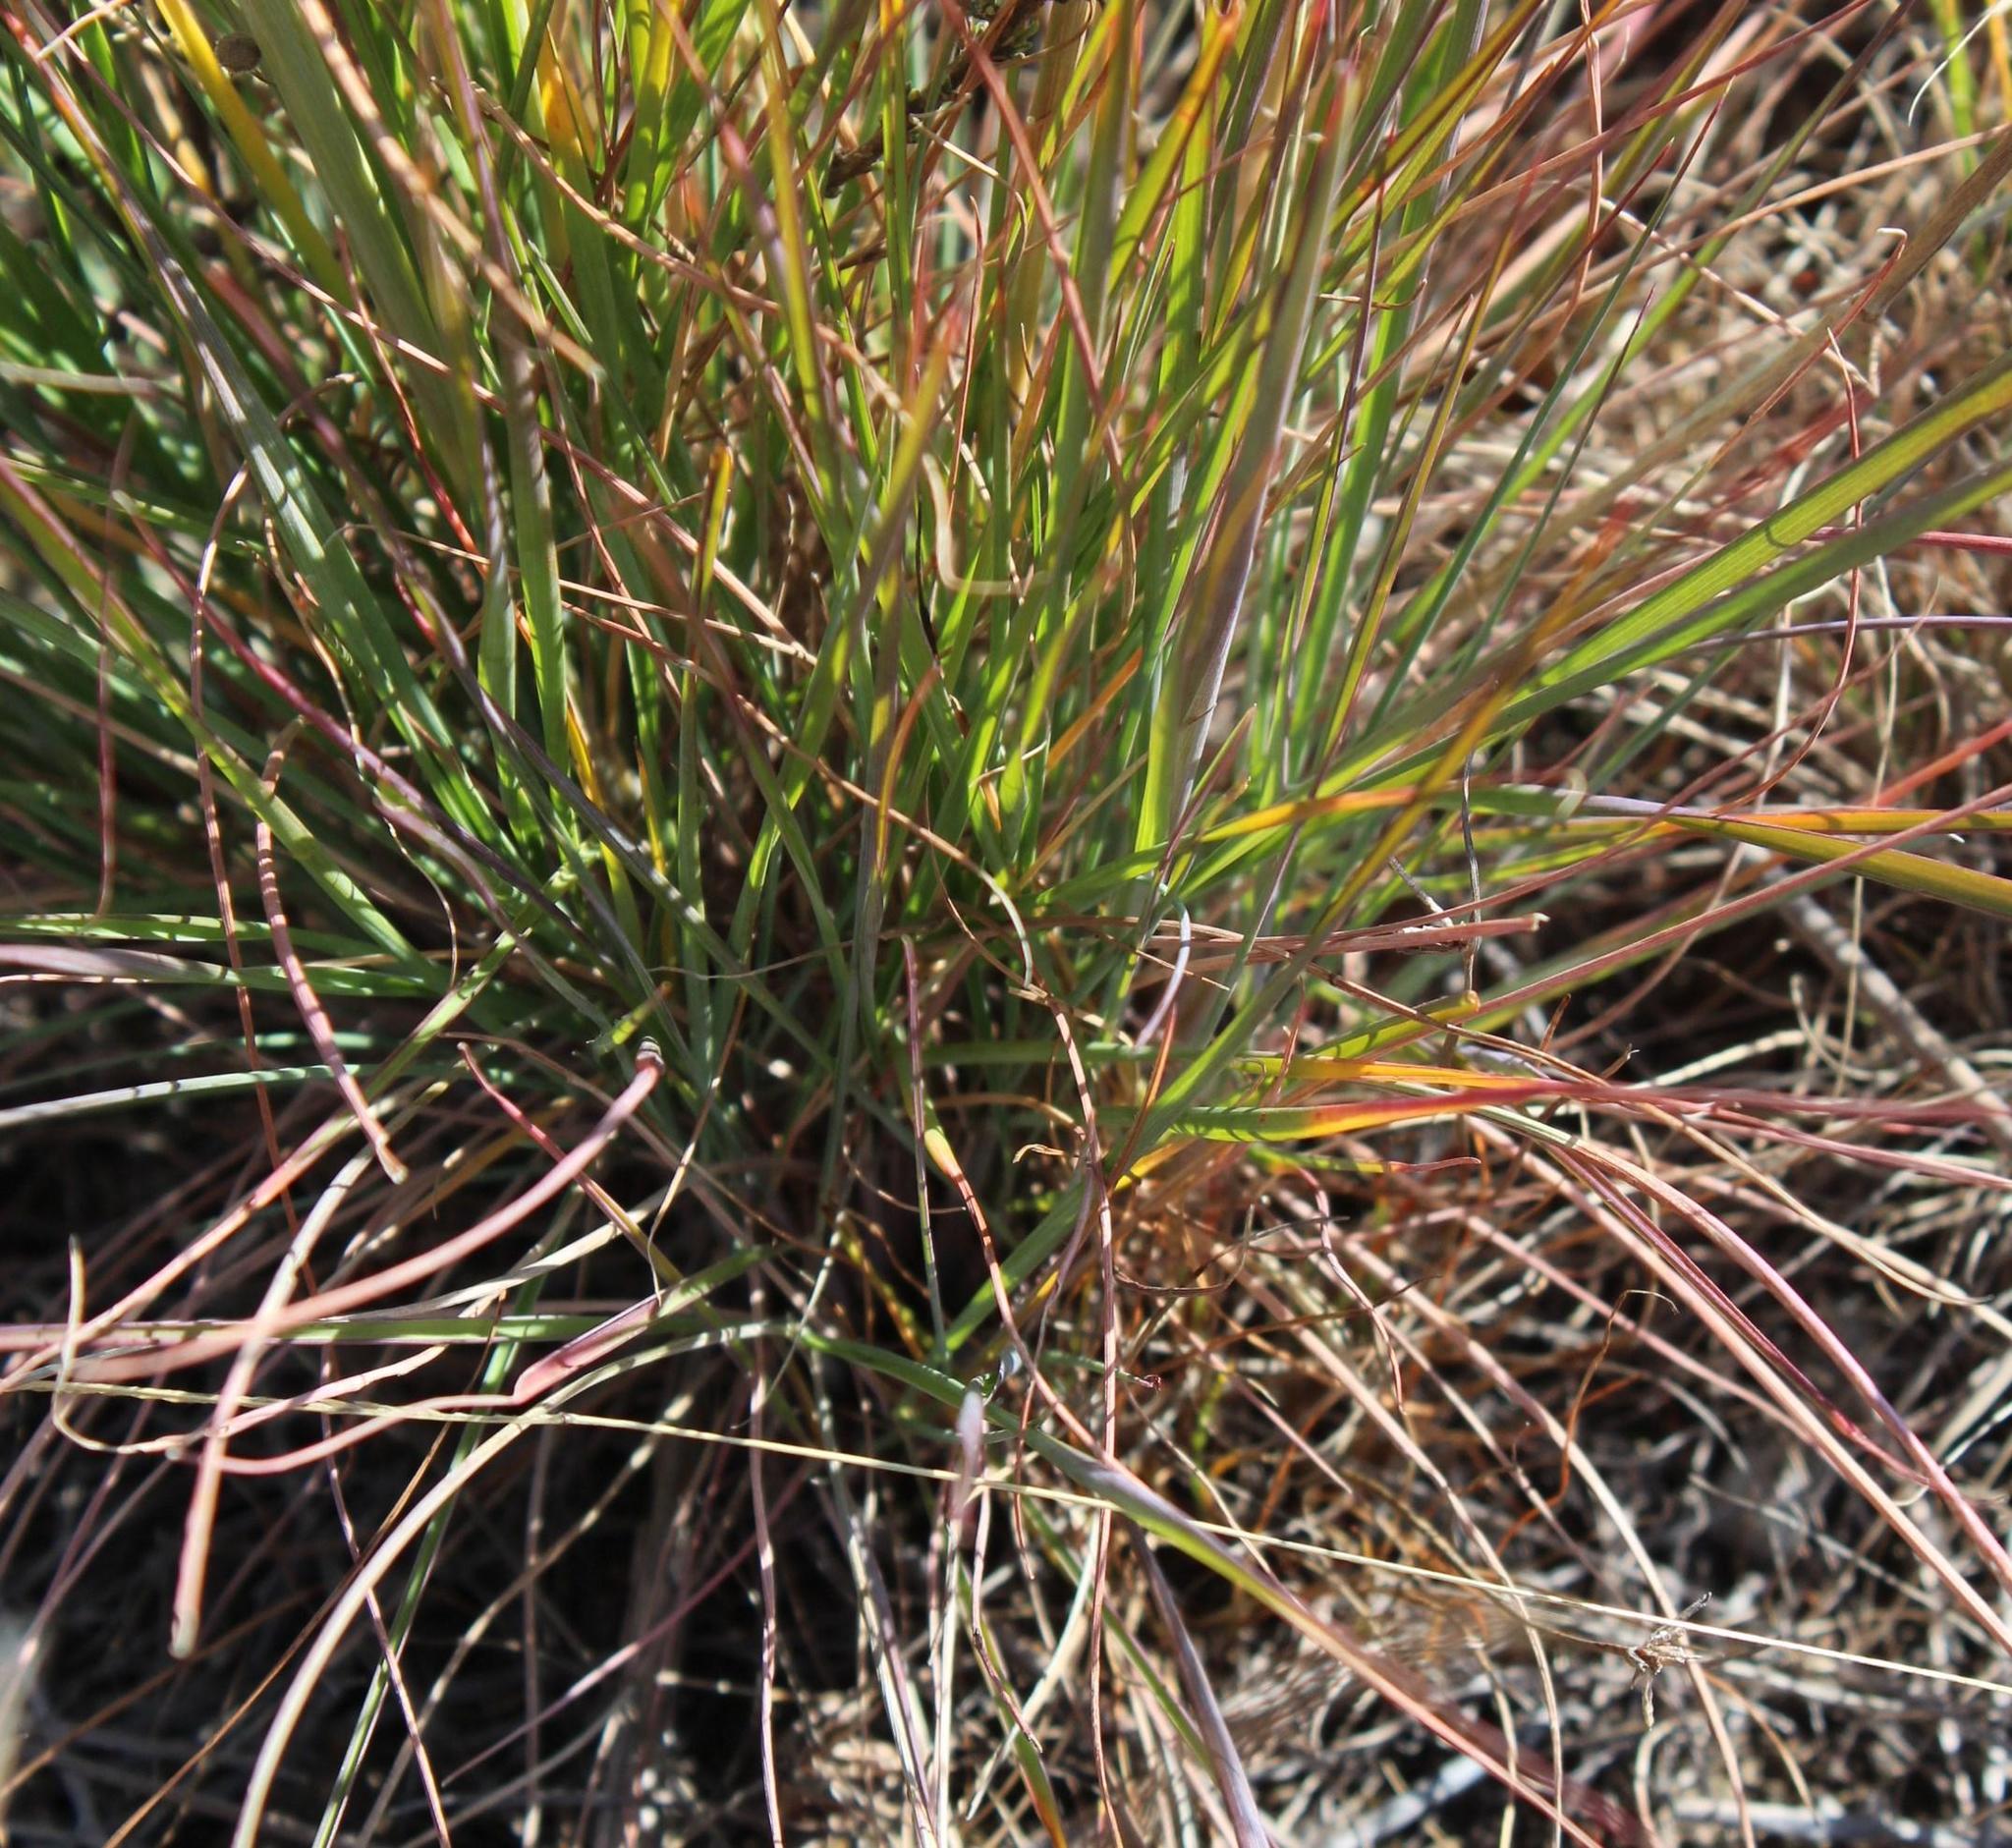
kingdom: Plantae
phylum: Tracheophyta
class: Liliopsida
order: Poales
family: Poaceae
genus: Melinis
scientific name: Melinis nerviglumis
